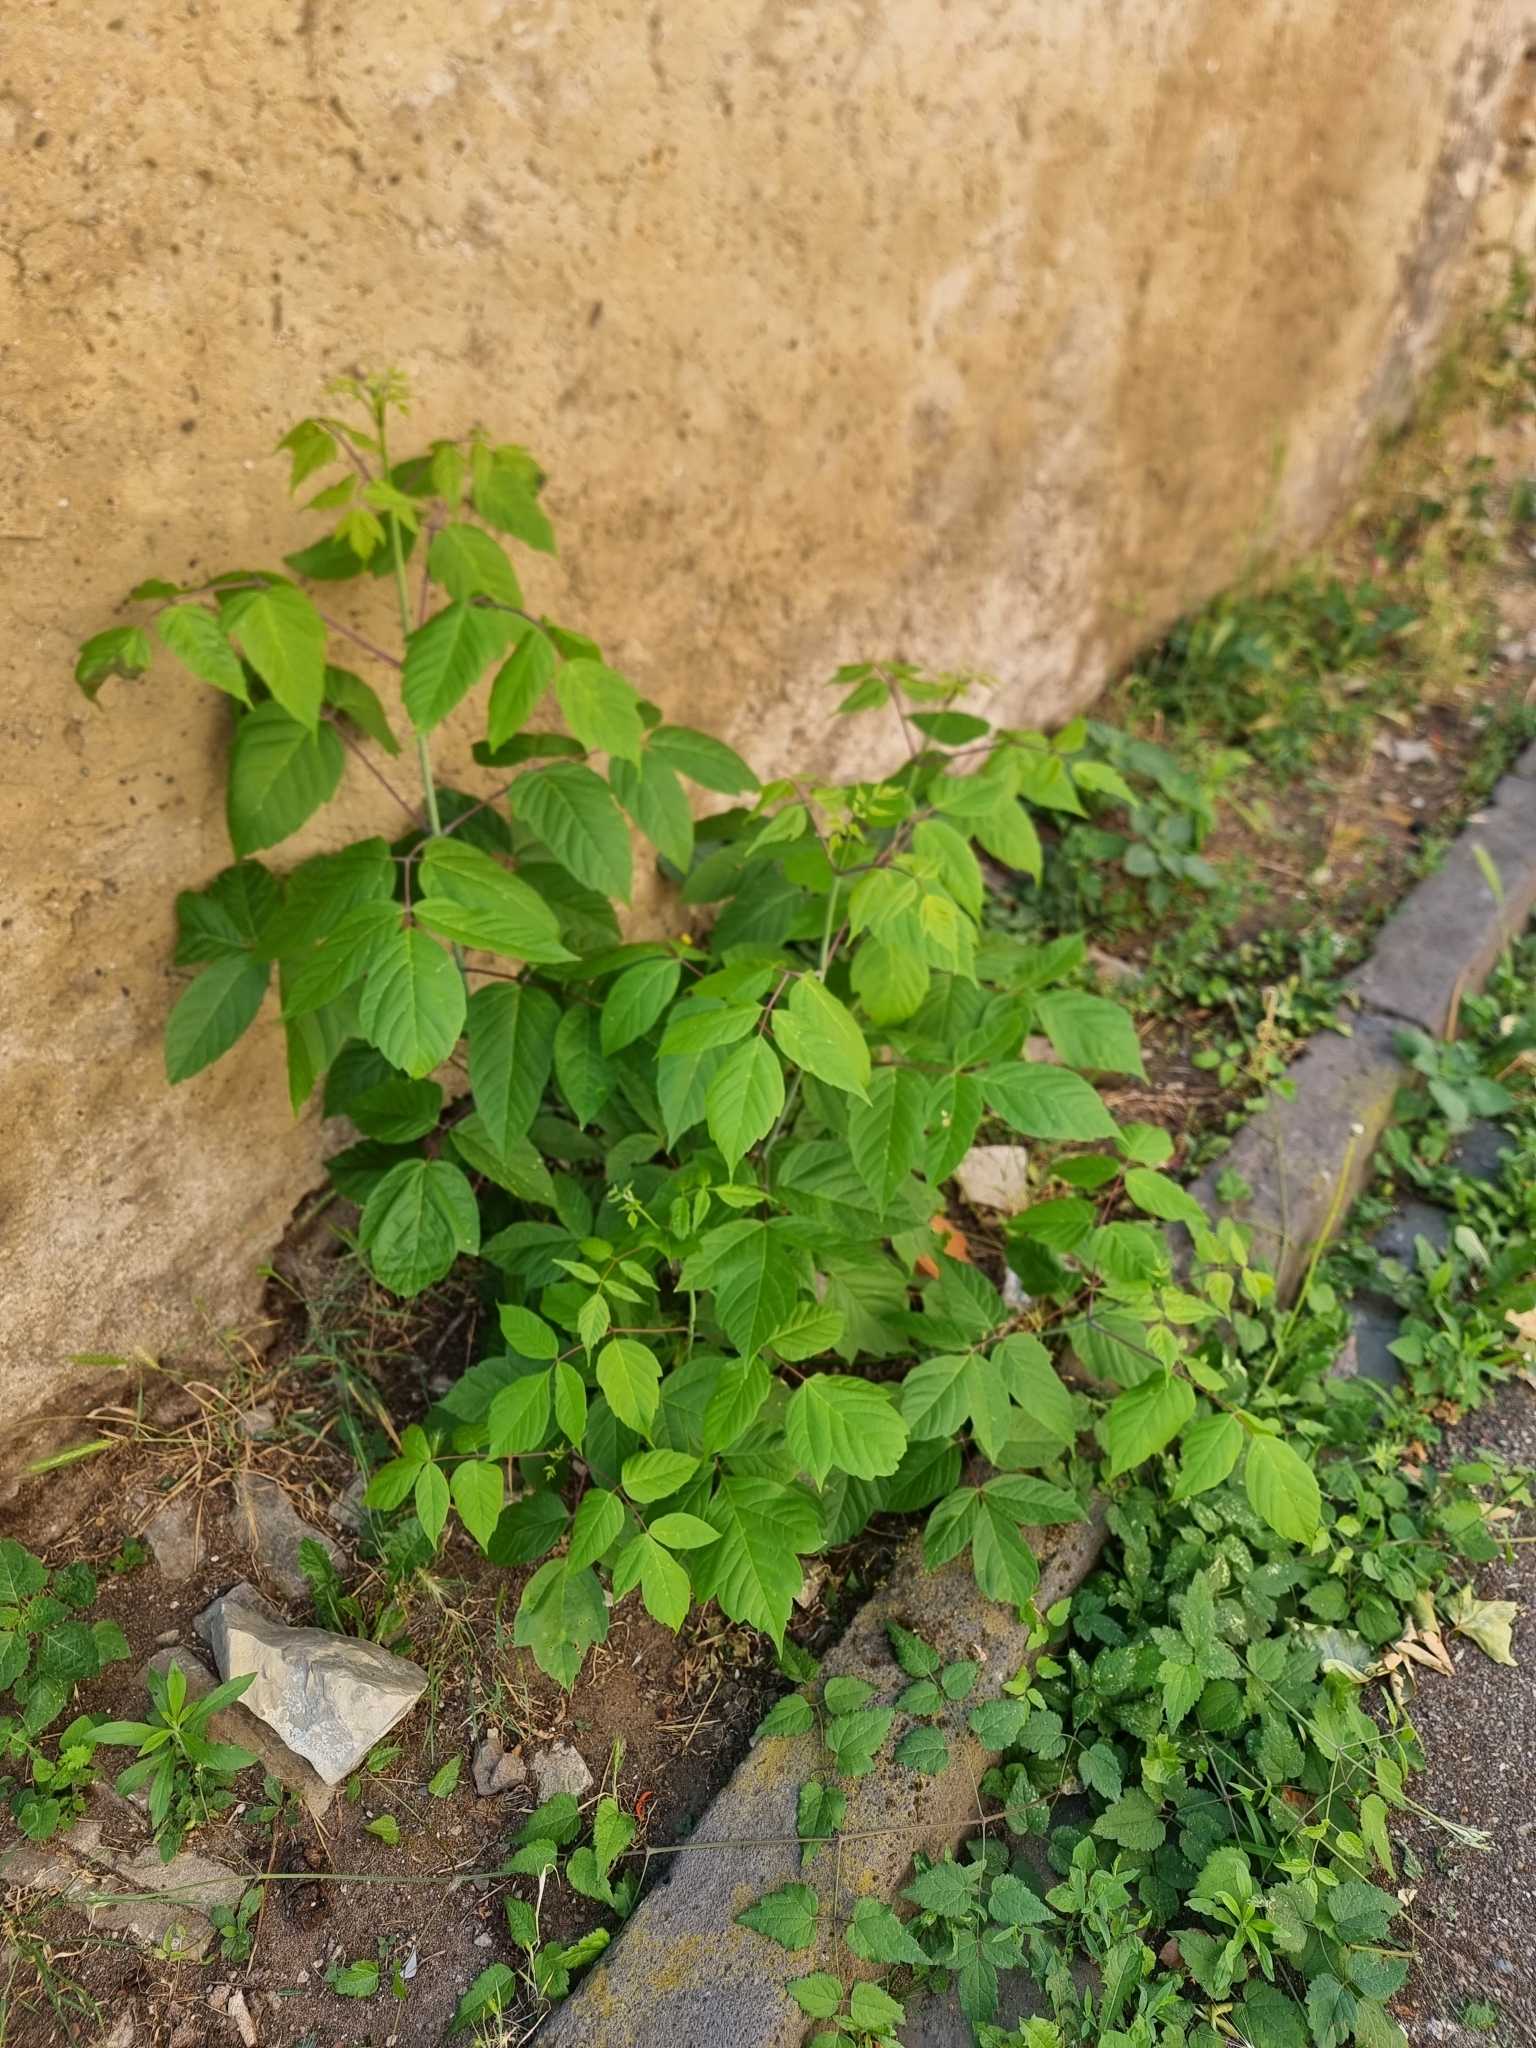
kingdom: Plantae
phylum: Tracheophyta
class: Magnoliopsida
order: Sapindales
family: Sapindaceae
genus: Acer
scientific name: Acer negundo
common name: Ashleaf maple
